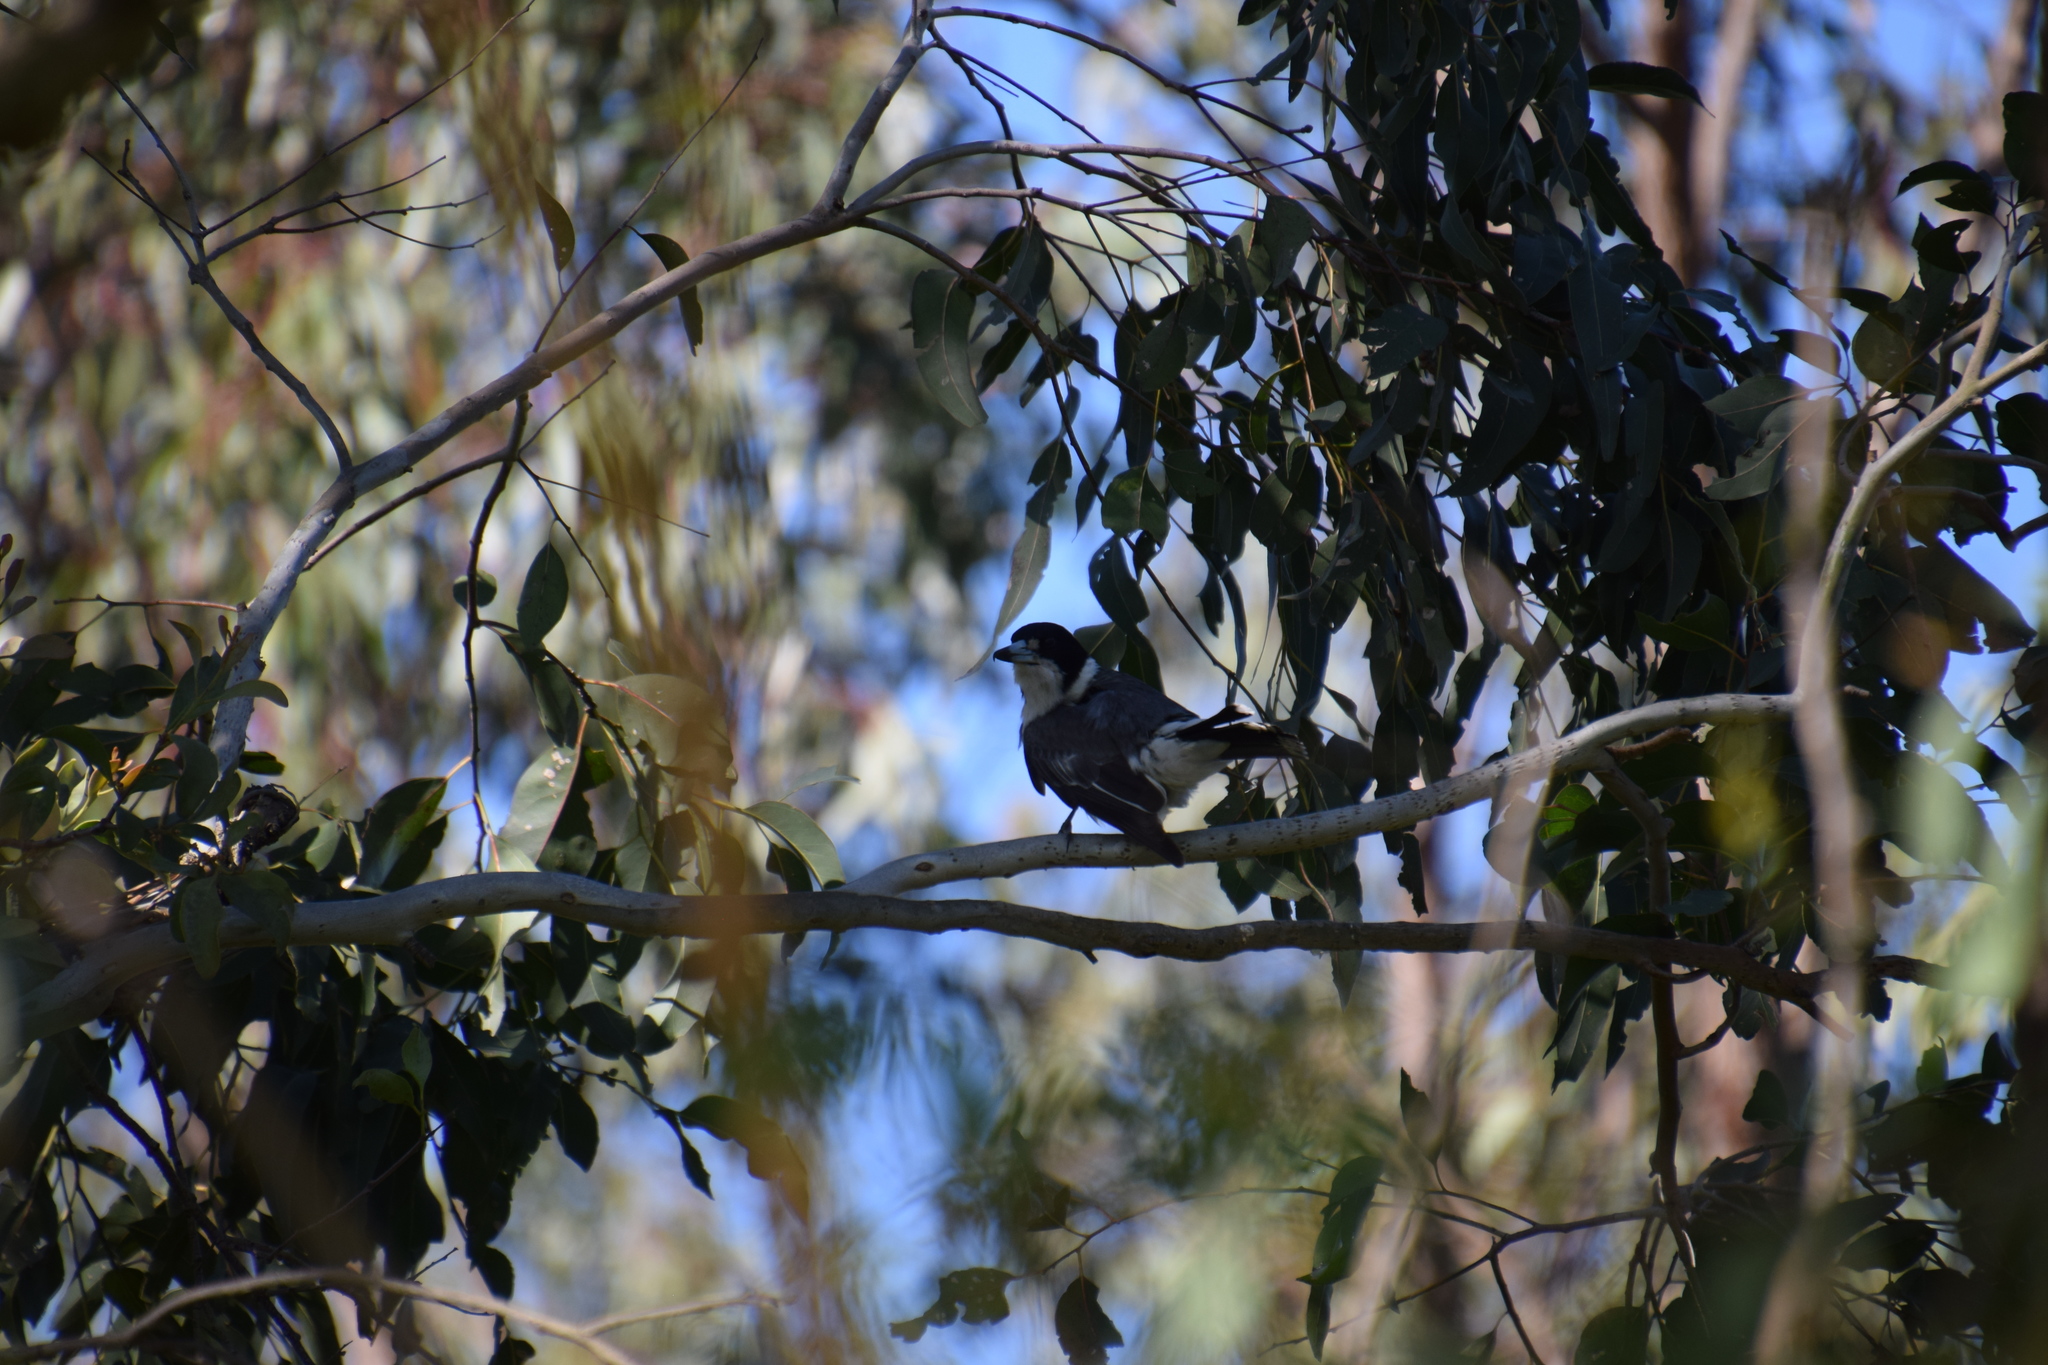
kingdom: Animalia
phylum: Chordata
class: Aves
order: Passeriformes
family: Cracticidae
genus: Cracticus
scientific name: Cracticus torquatus
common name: Grey butcherbird
